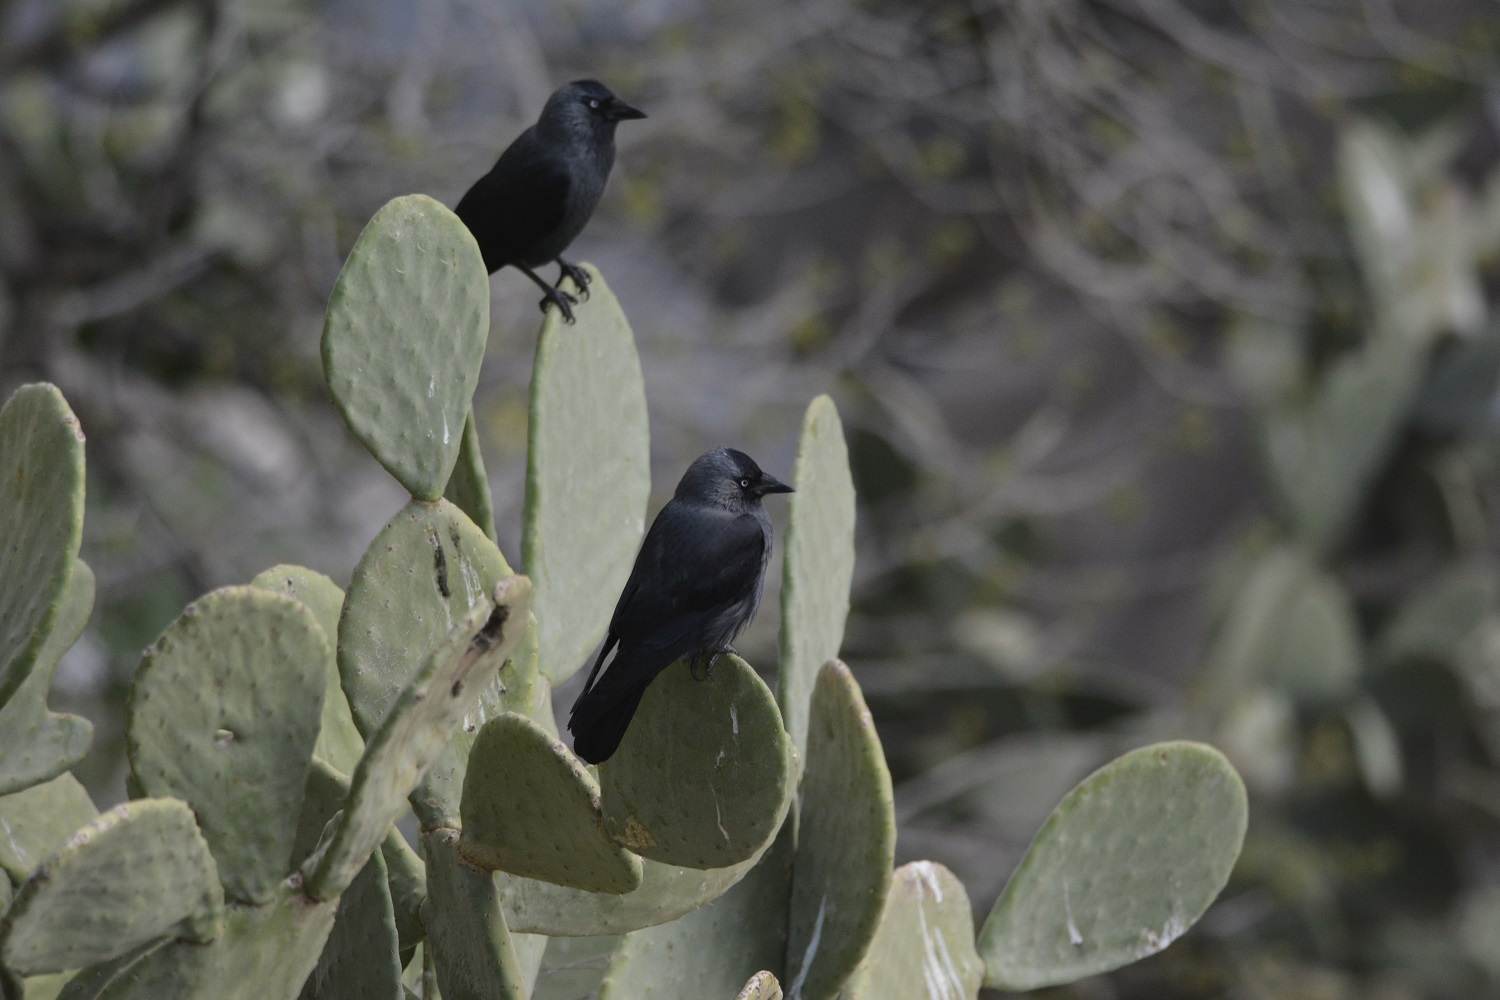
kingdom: Animalia
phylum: Chordata
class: Aves
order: Passeriformes
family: Corvidae
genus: Coloeus
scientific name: Coloeus monedula
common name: Western jackdaw
